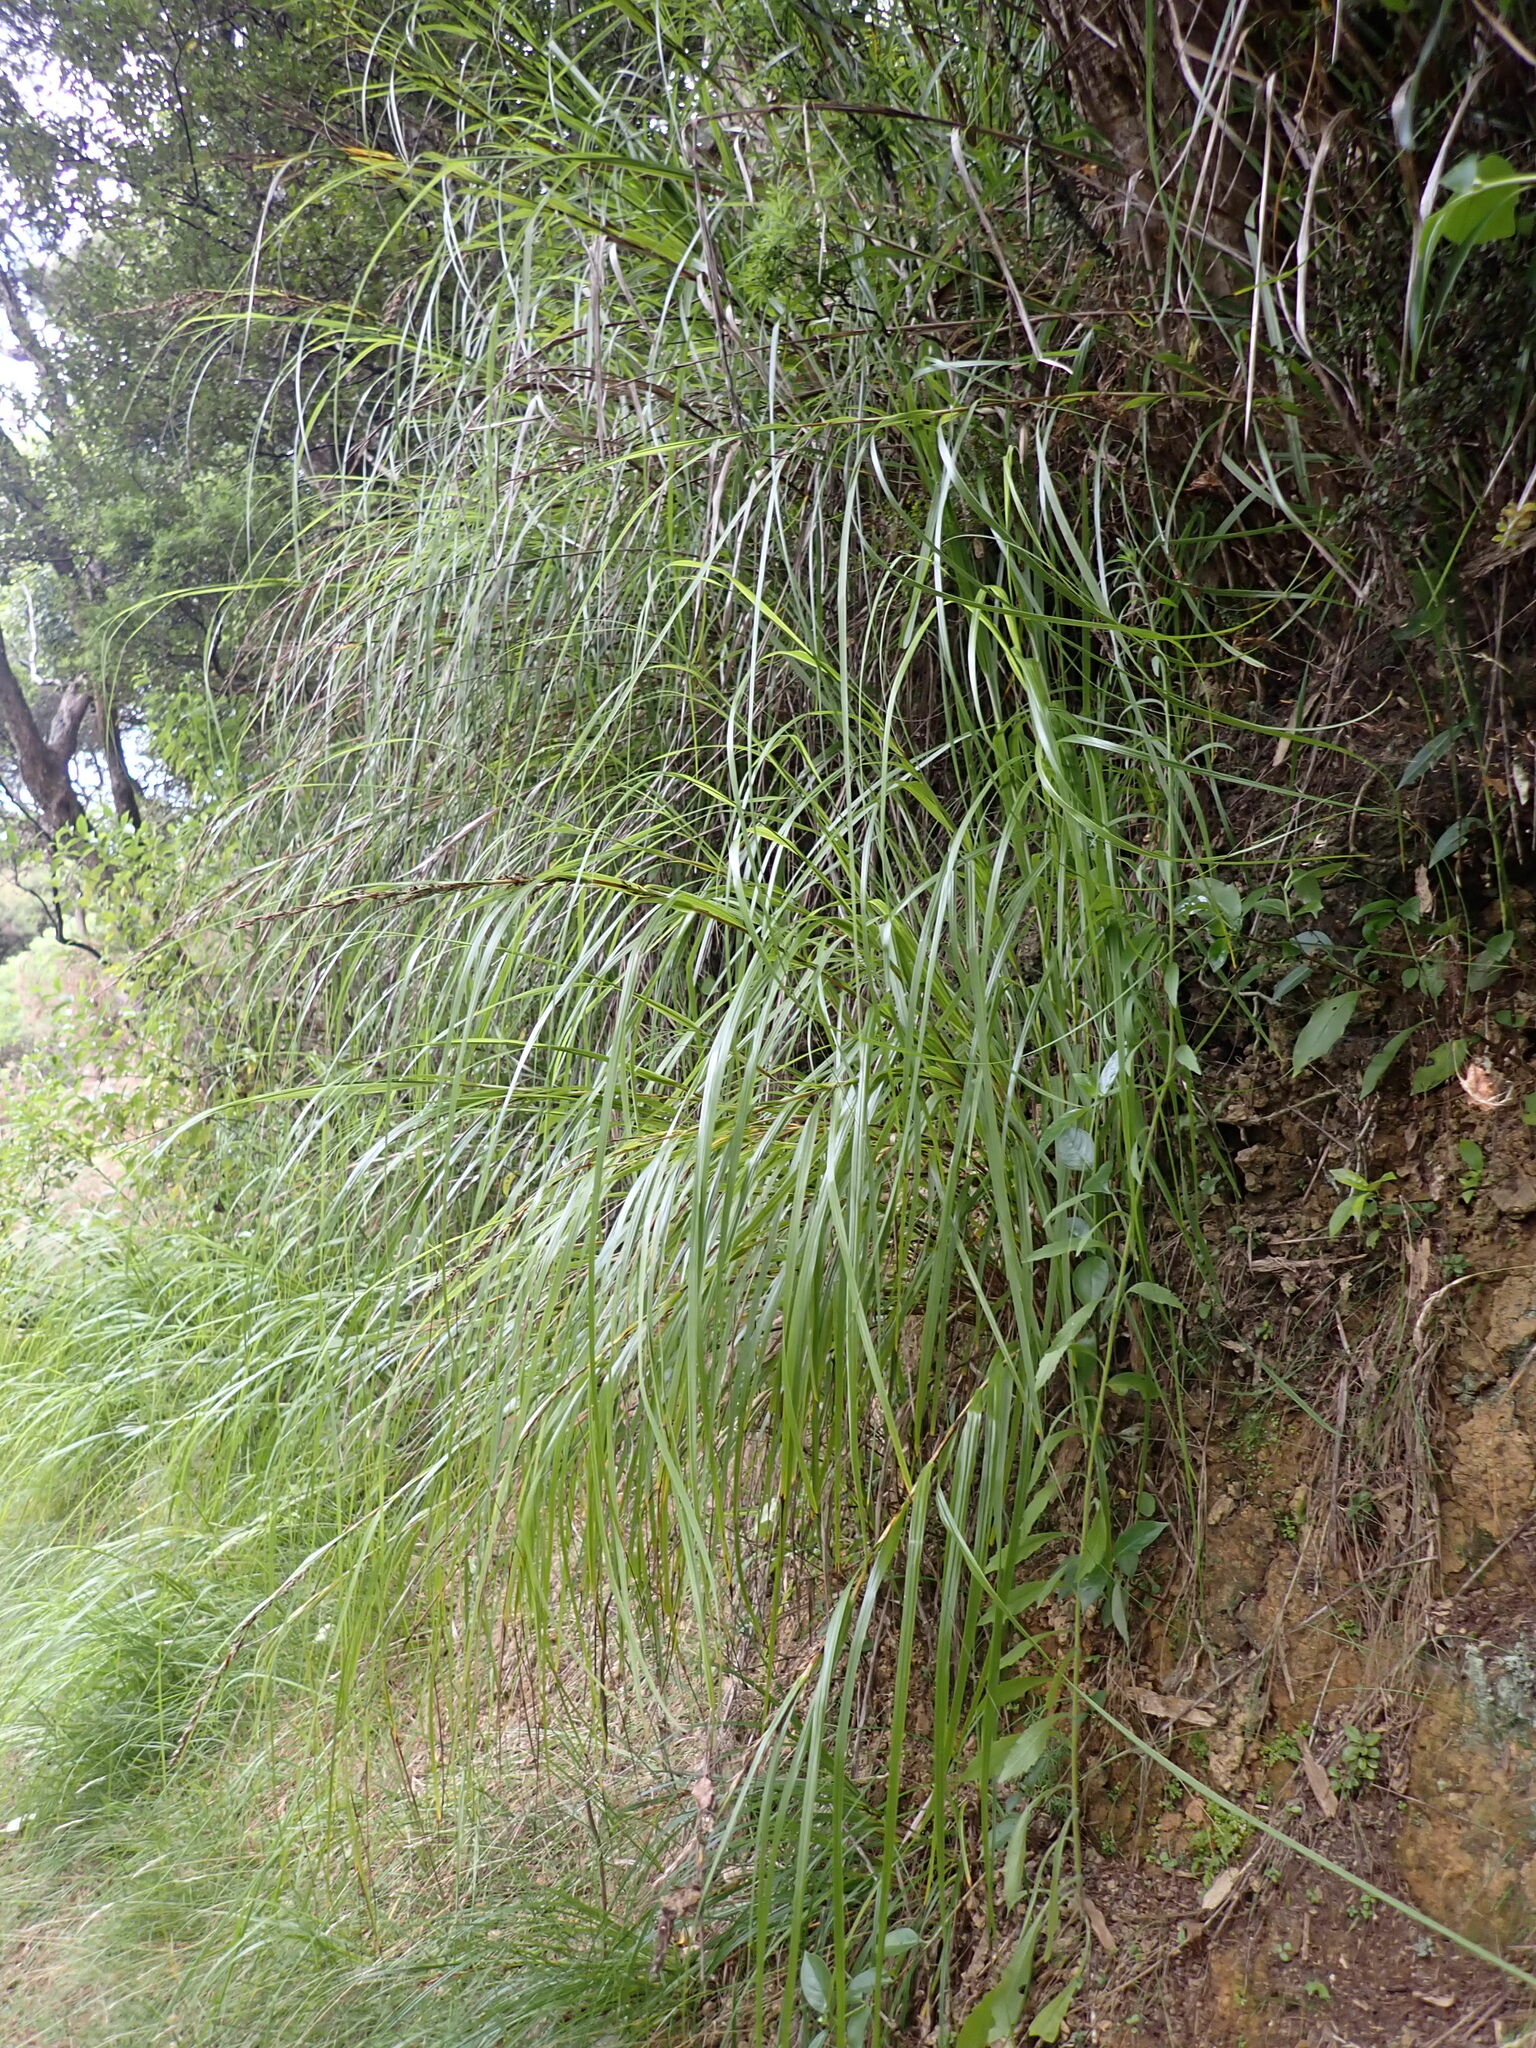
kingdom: Plantae
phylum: Tracheophyta
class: Liliopsida
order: Poales
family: Cyperaceae
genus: Gahnia
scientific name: Gahnia lacera
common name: Sawsedge
